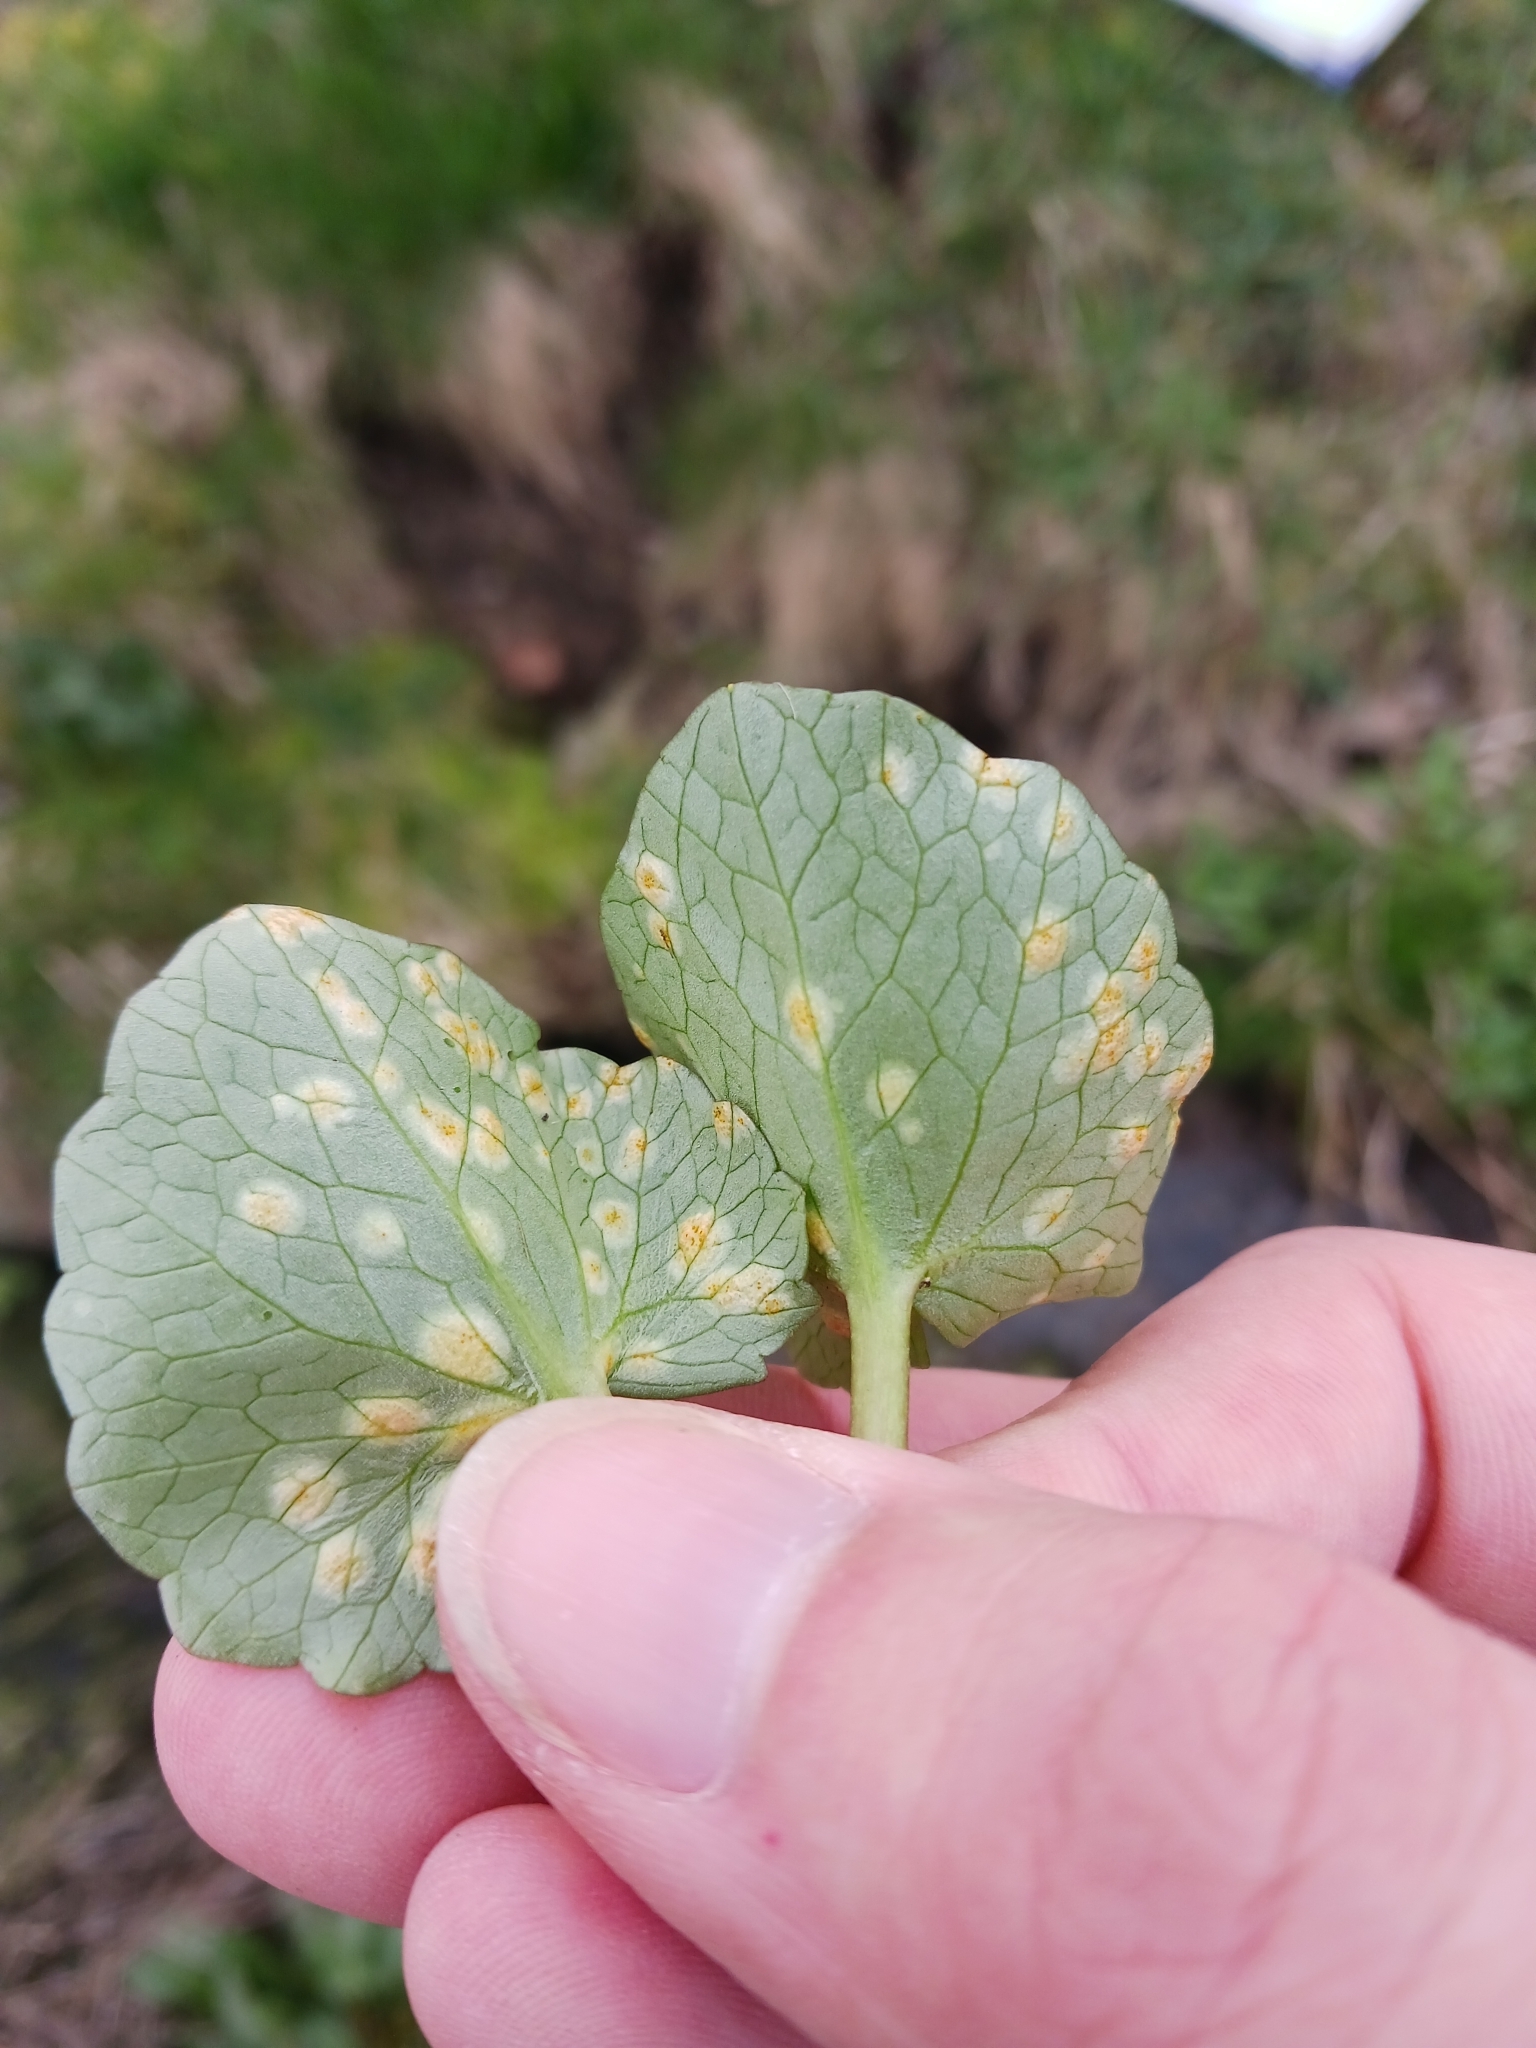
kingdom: Fungi
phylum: Basidiomycota
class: Pucciniomycetes
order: Pucciniales
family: Pucciniaceae
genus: Uromyces
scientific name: Uromyces
